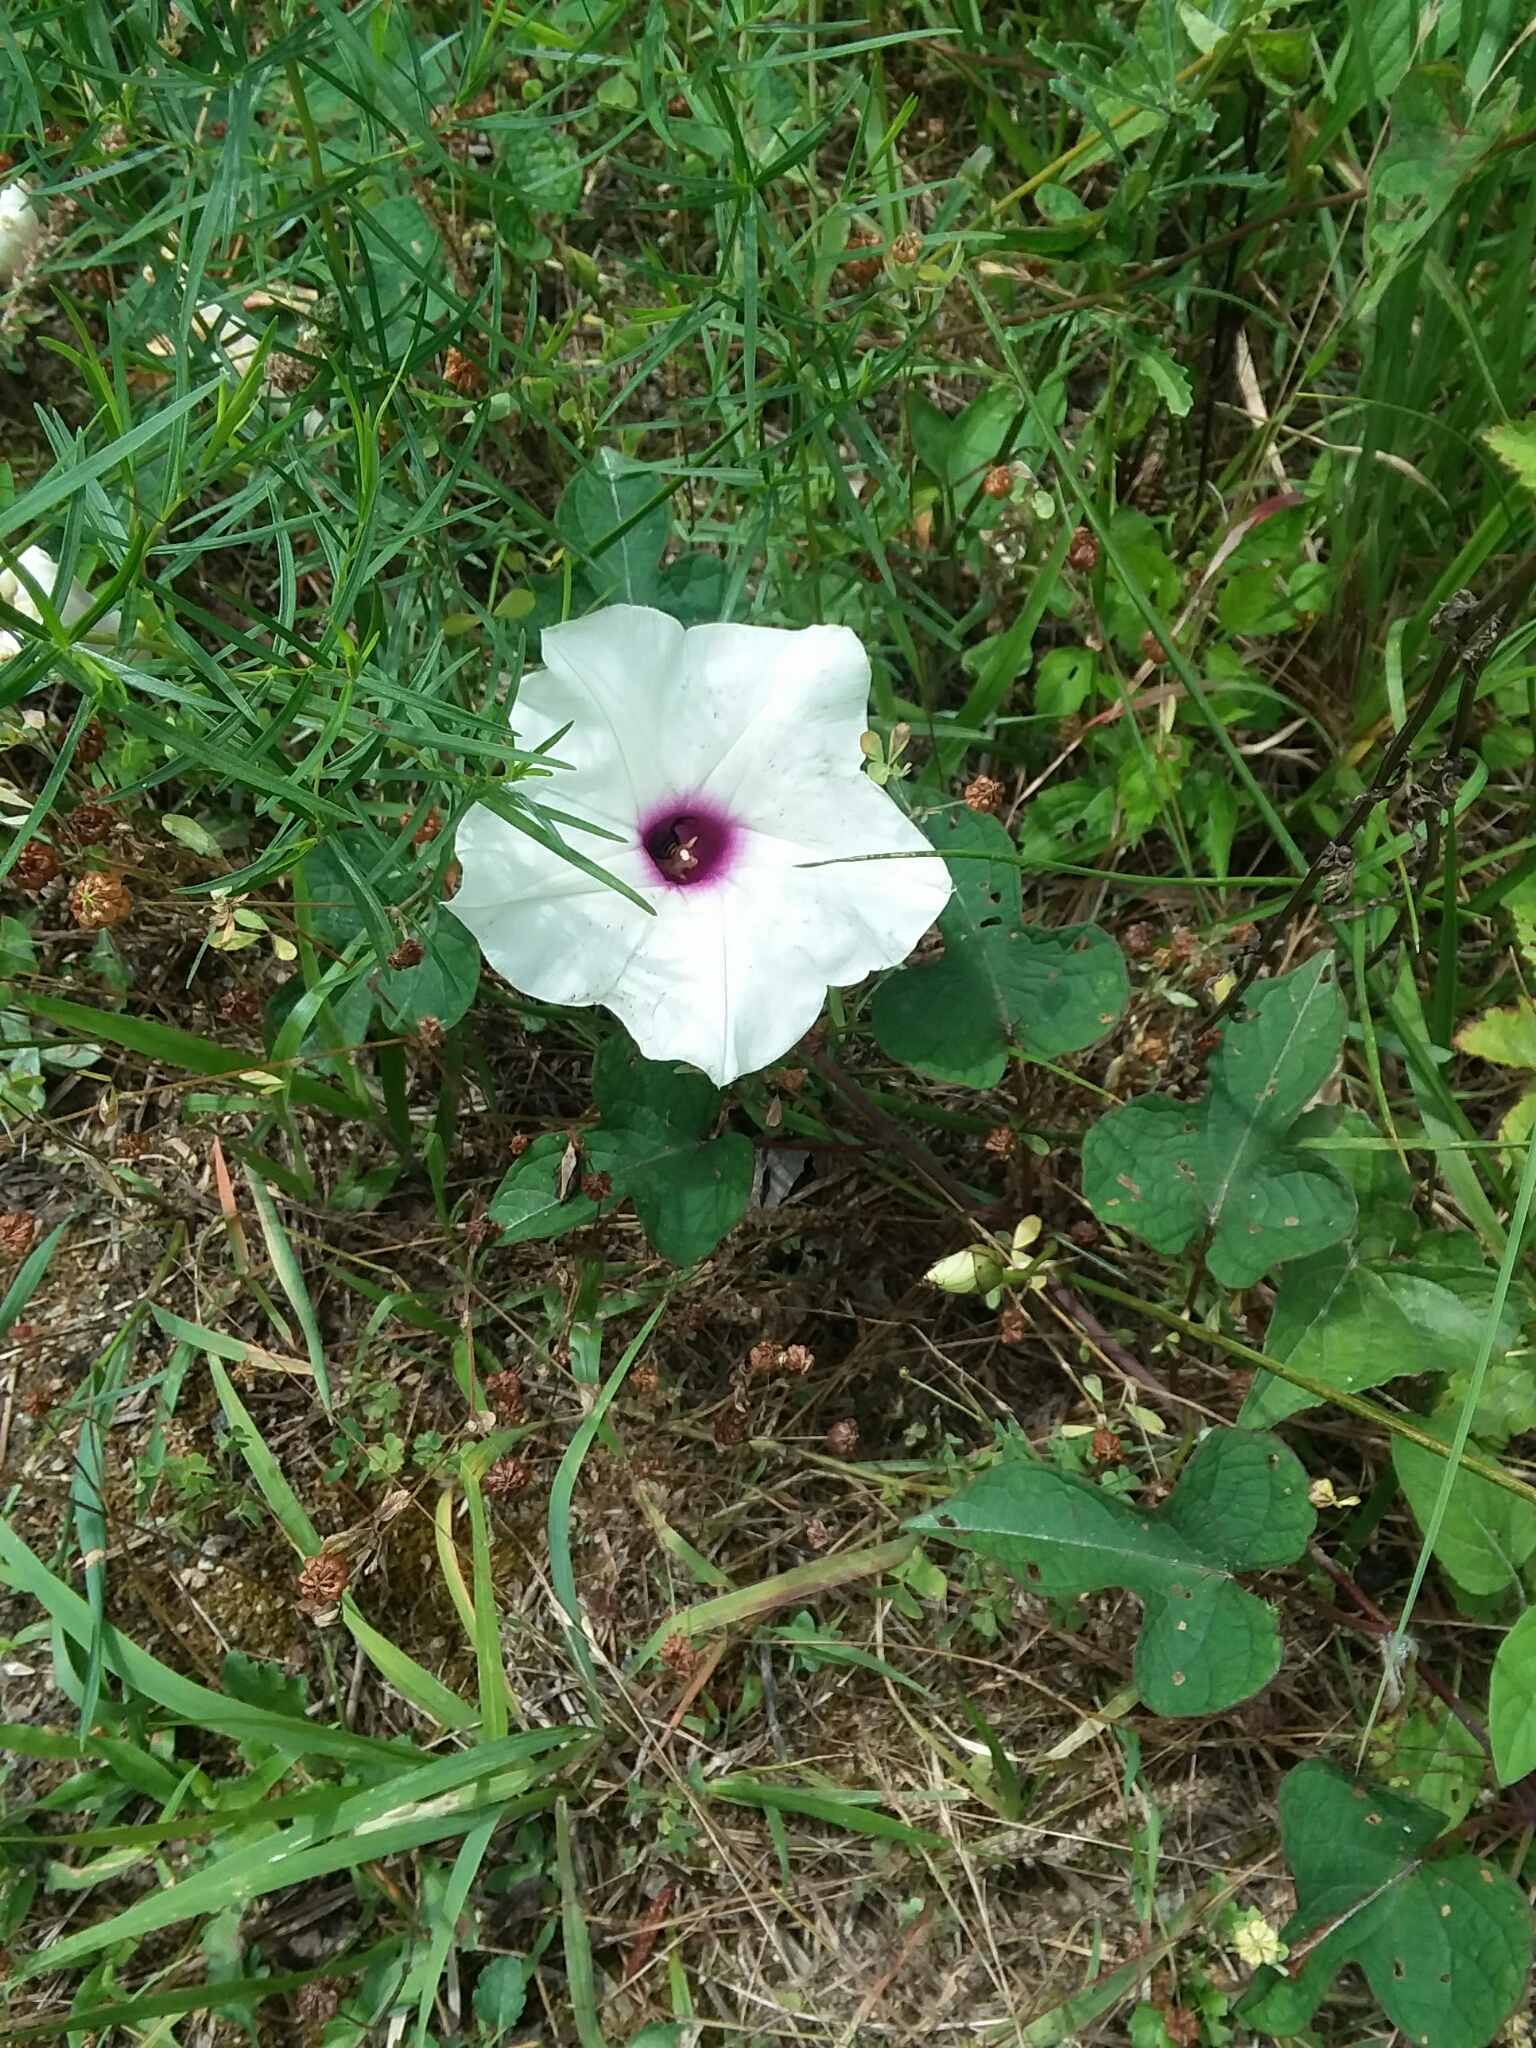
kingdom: Plantae
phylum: Tracheophyta
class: Magnoliopsida
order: Solanales
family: Convolvulaceae
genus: Ipomoea
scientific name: Ipomoea pandurata
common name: Man-of-the-earth
